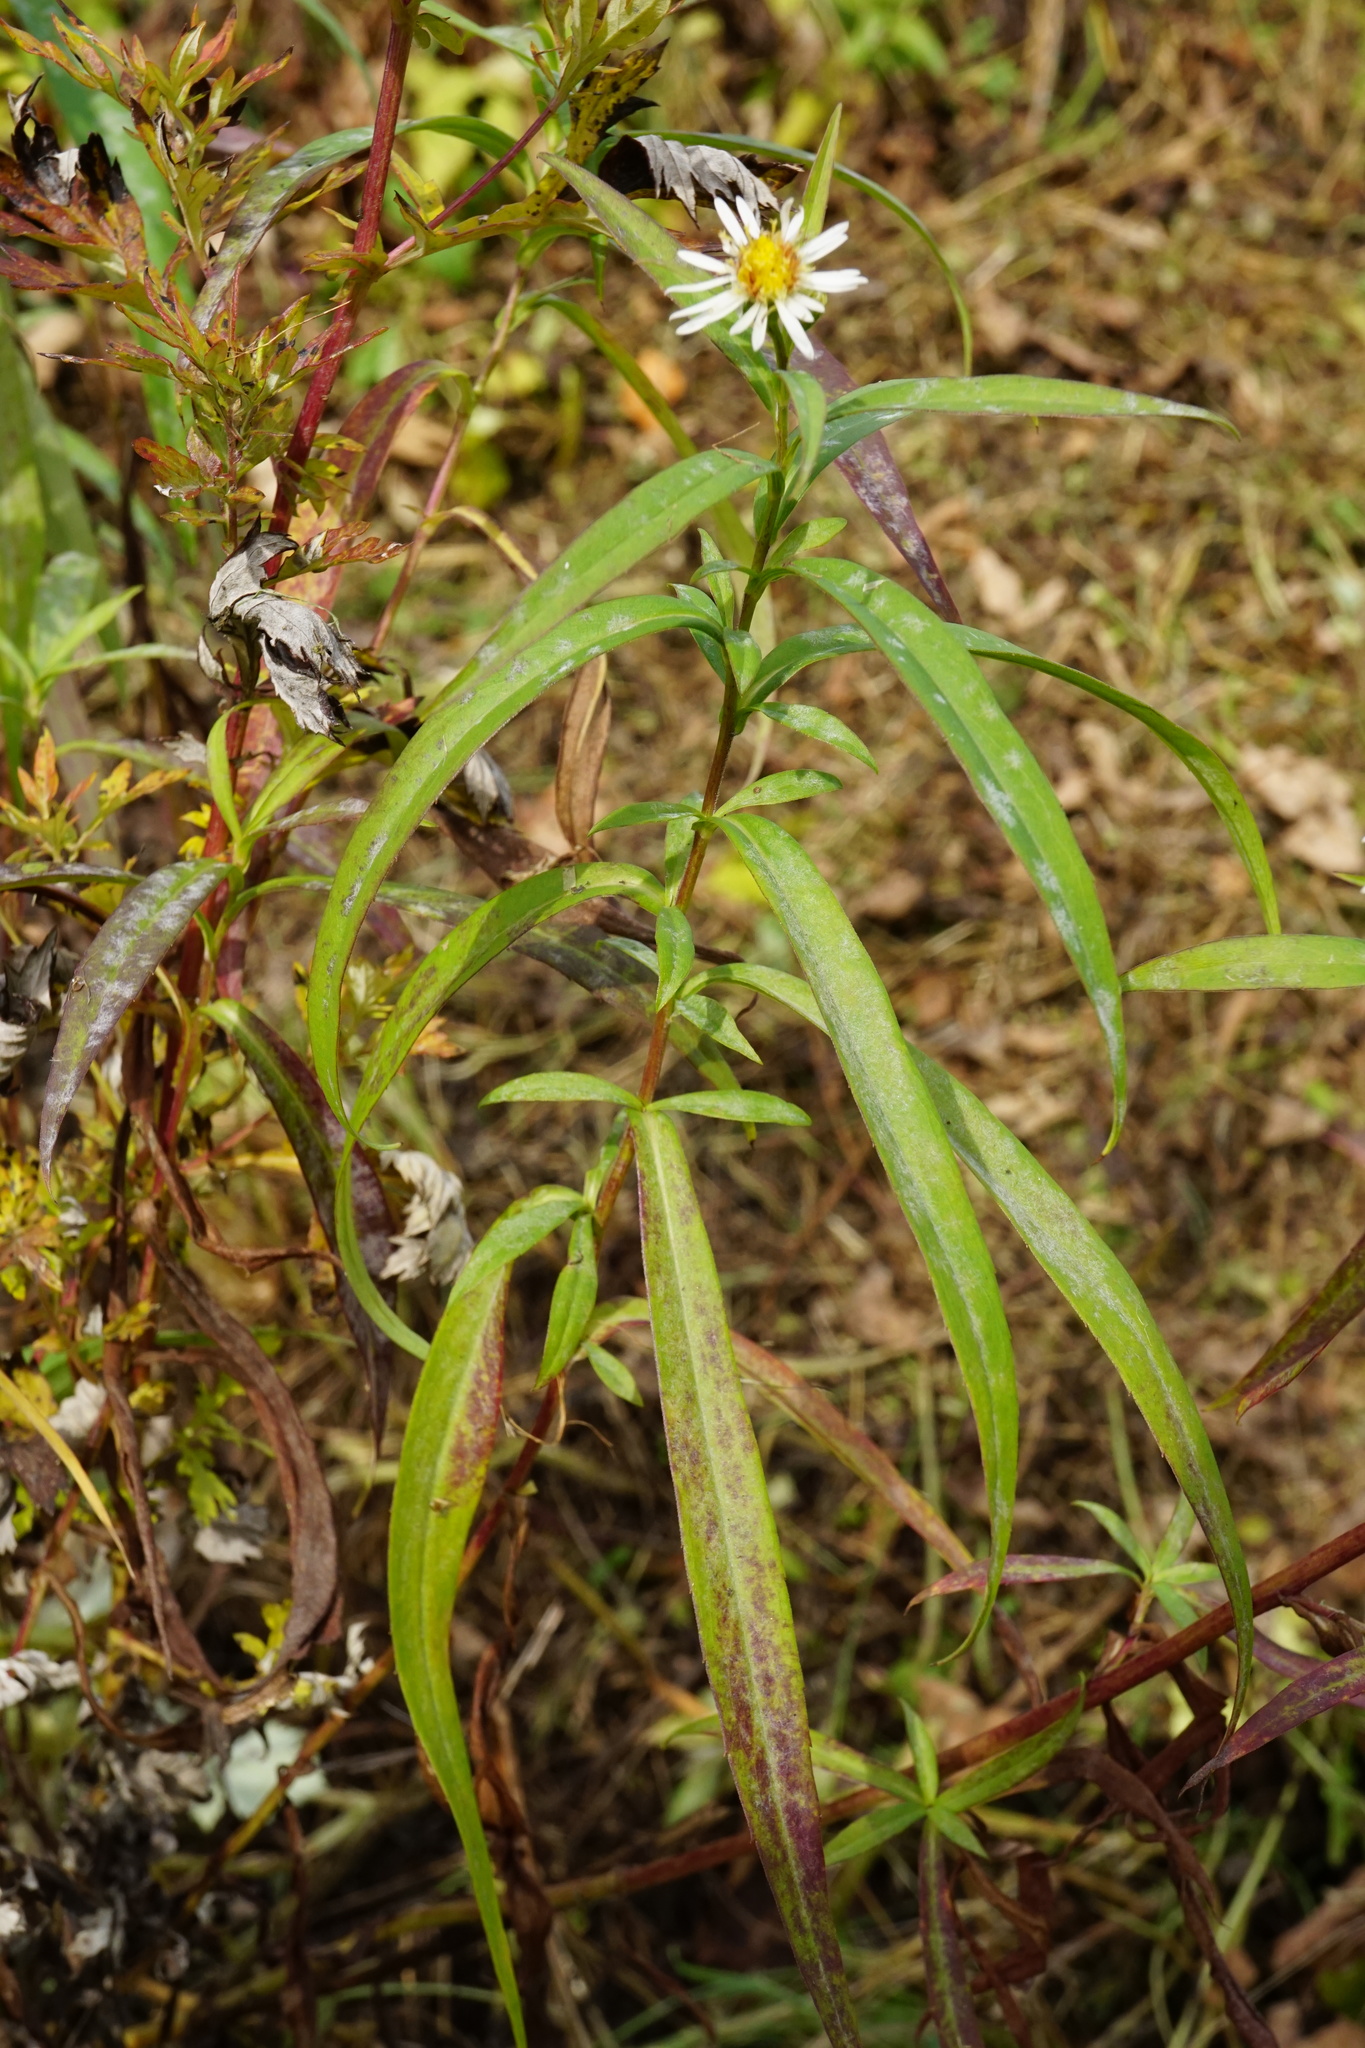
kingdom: Plantae
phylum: Tracheophyta
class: Magnoliopsida
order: Asterales
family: Asteraceae
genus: Symphyotrichum
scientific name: Symphyotrichum lanceolatum
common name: Panicled aster
